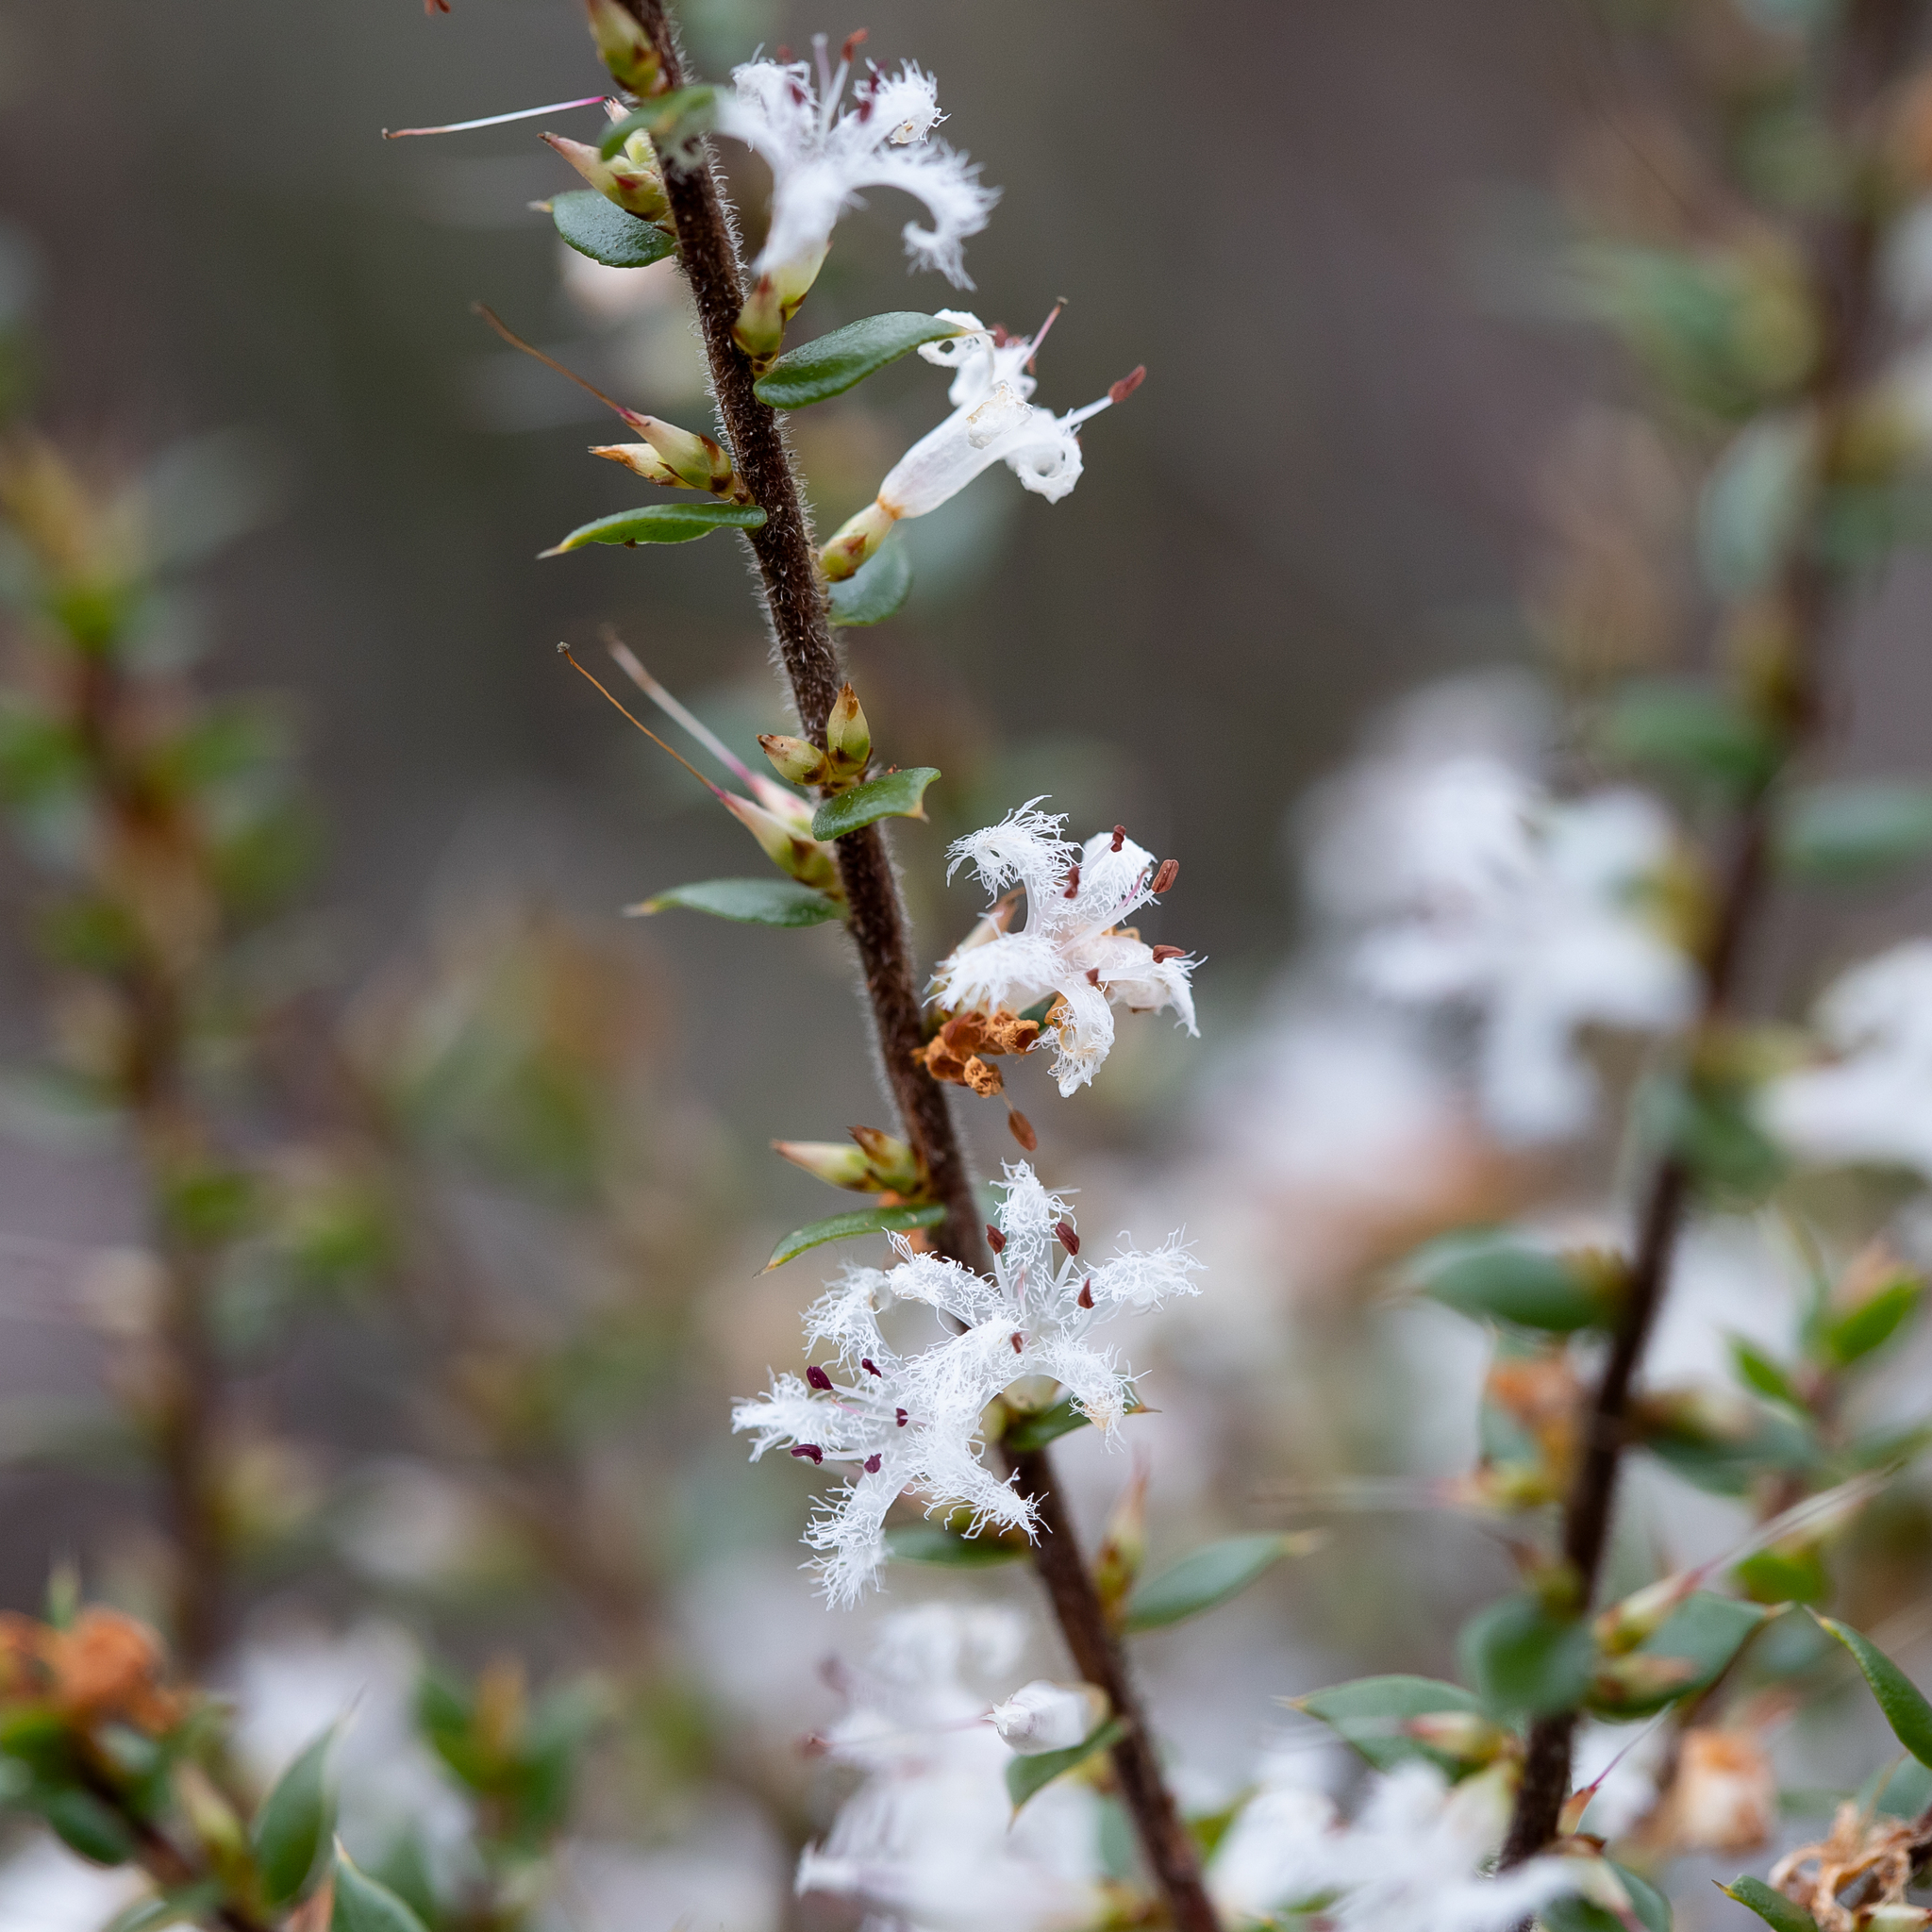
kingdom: Plantae
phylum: Tracheophyta
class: Magnoliopsida
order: Ericales
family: Ericaceae
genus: Styphelia
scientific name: Styphelia exarrhena
